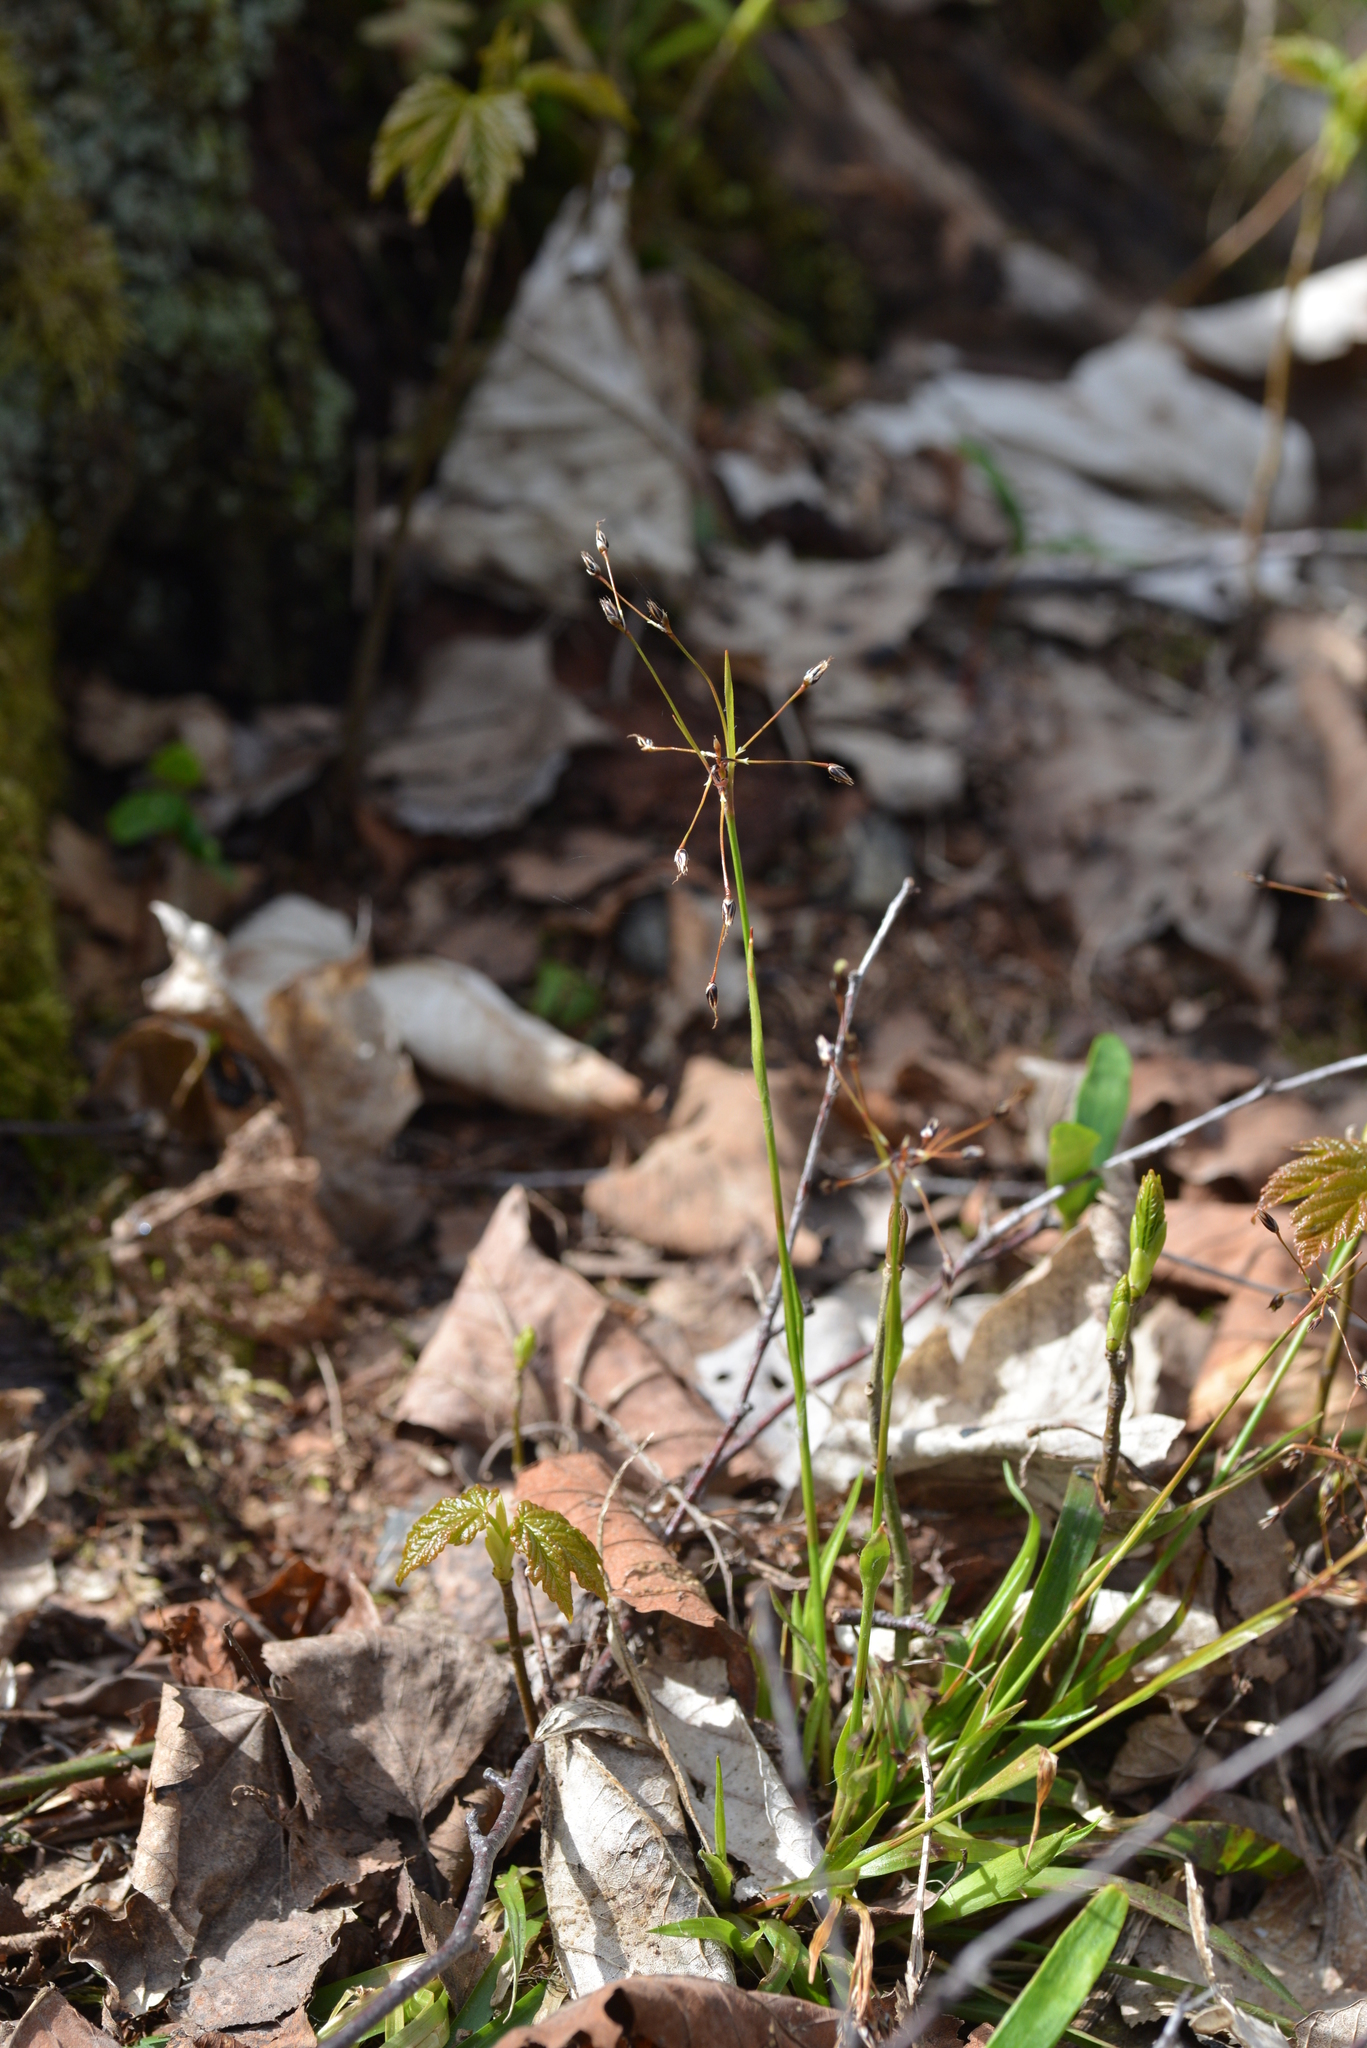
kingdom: Plantae
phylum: Tracheophyta
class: Liliopsida
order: Poales
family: Juncaceae
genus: Luzula
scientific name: Luzula pilosa
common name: Hairy wood-rush
